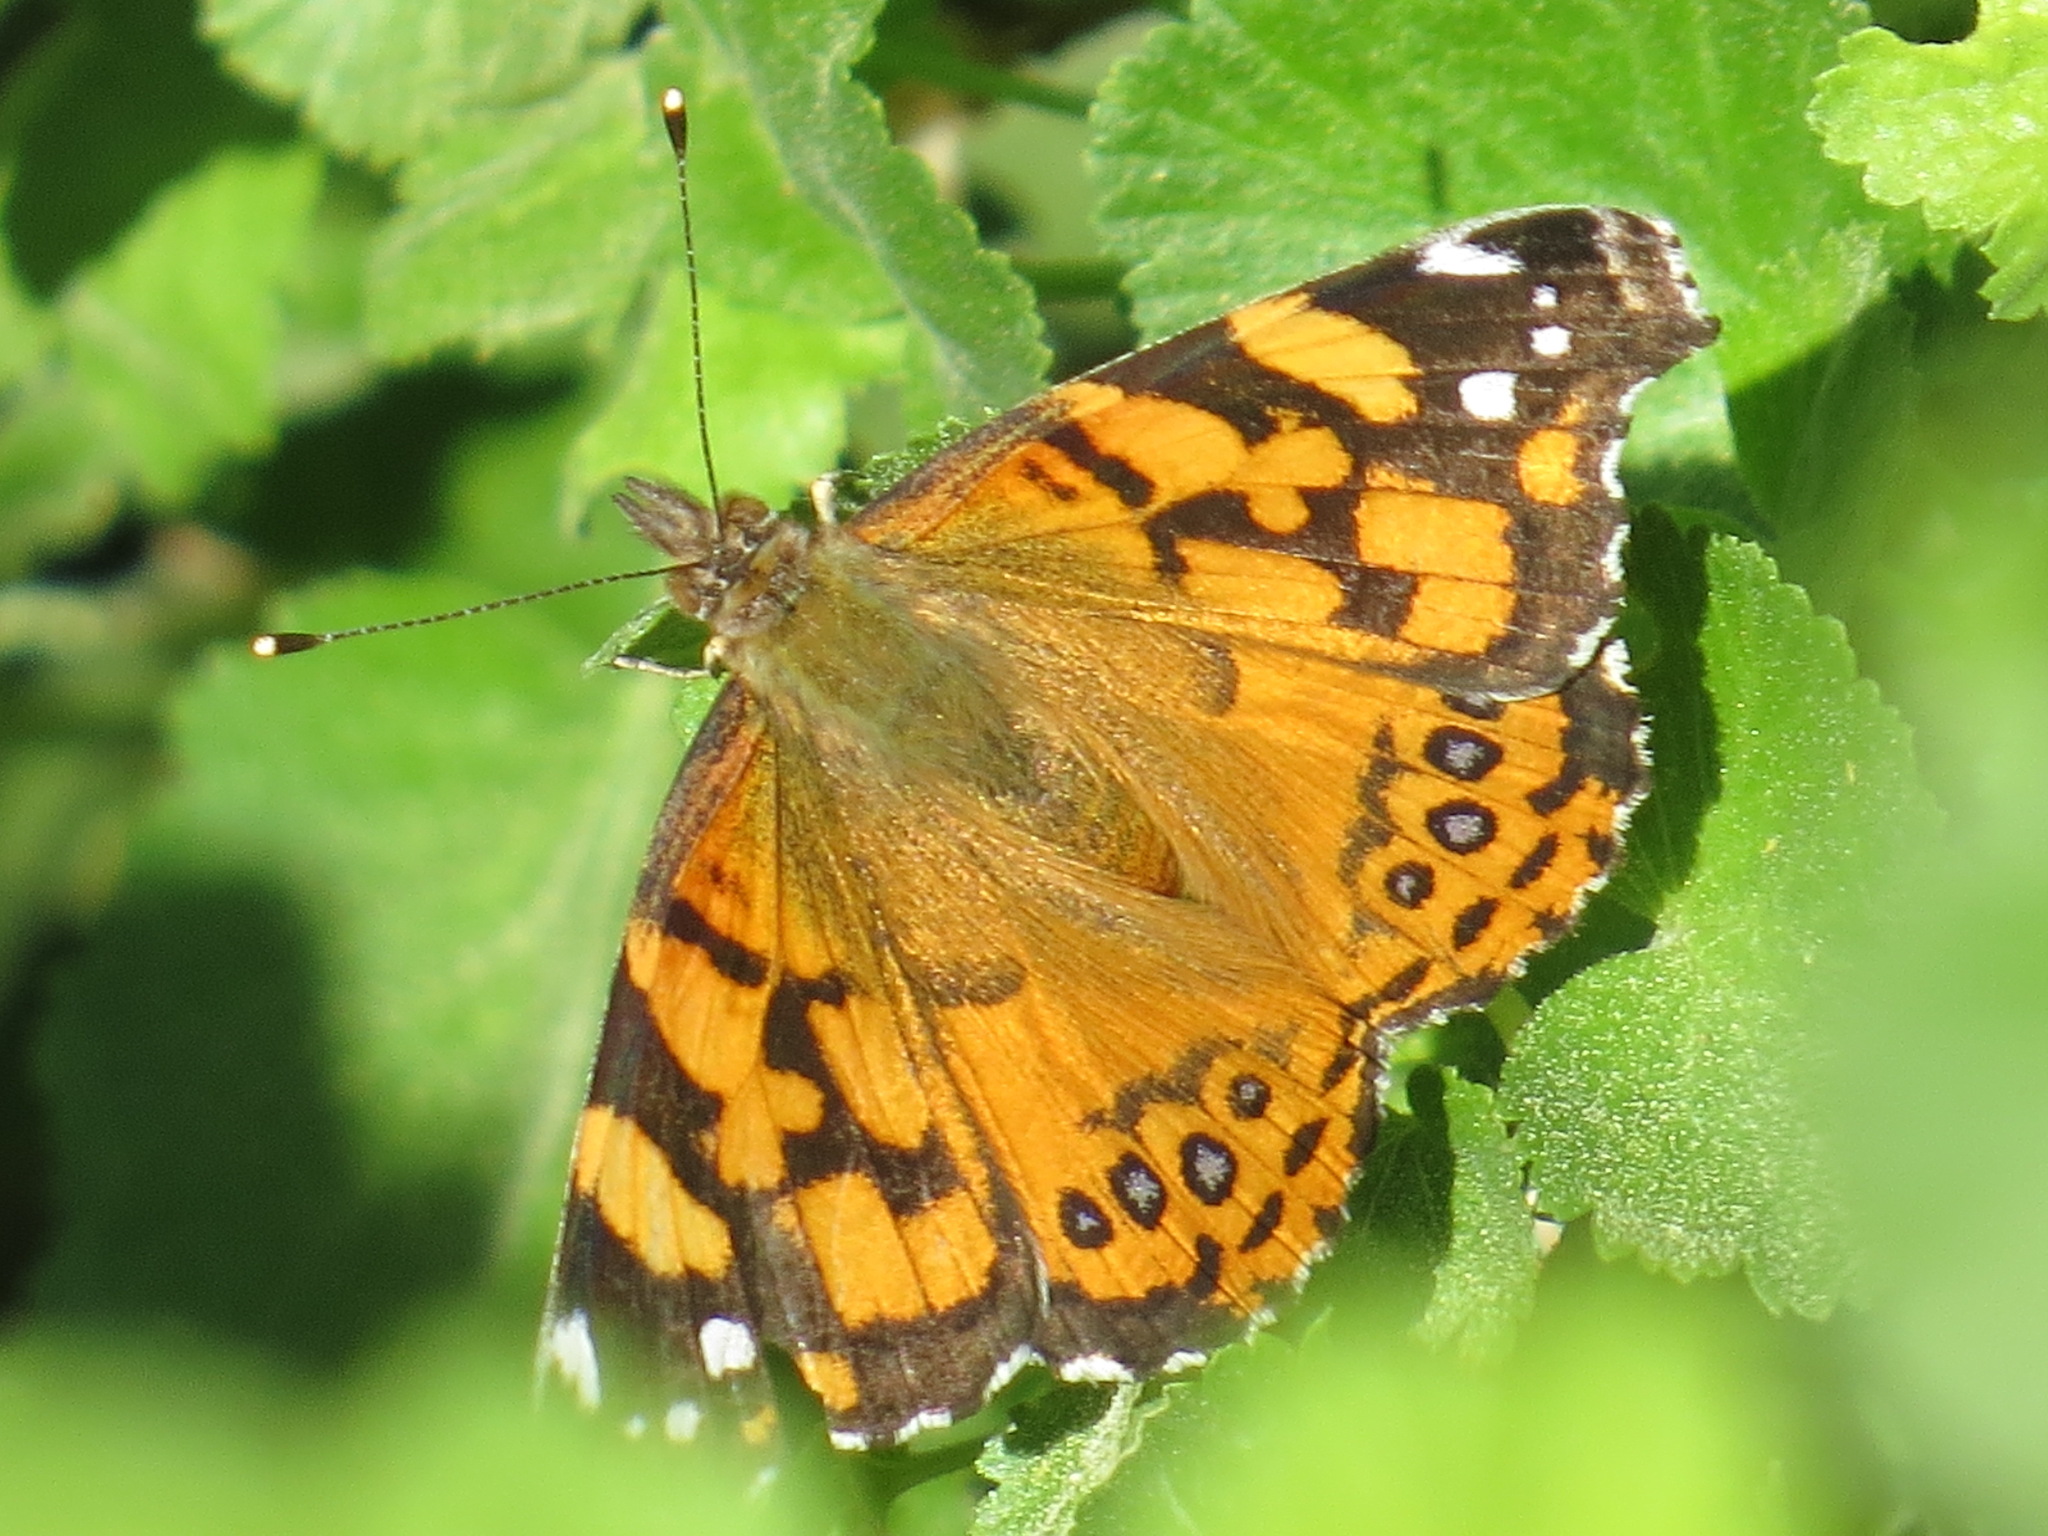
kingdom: Animalia
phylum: Arthropoda
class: Insecta
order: Lepidoptera
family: Nymphalidae
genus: Vanessa
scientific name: Vanessa annabella
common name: West coast lady
